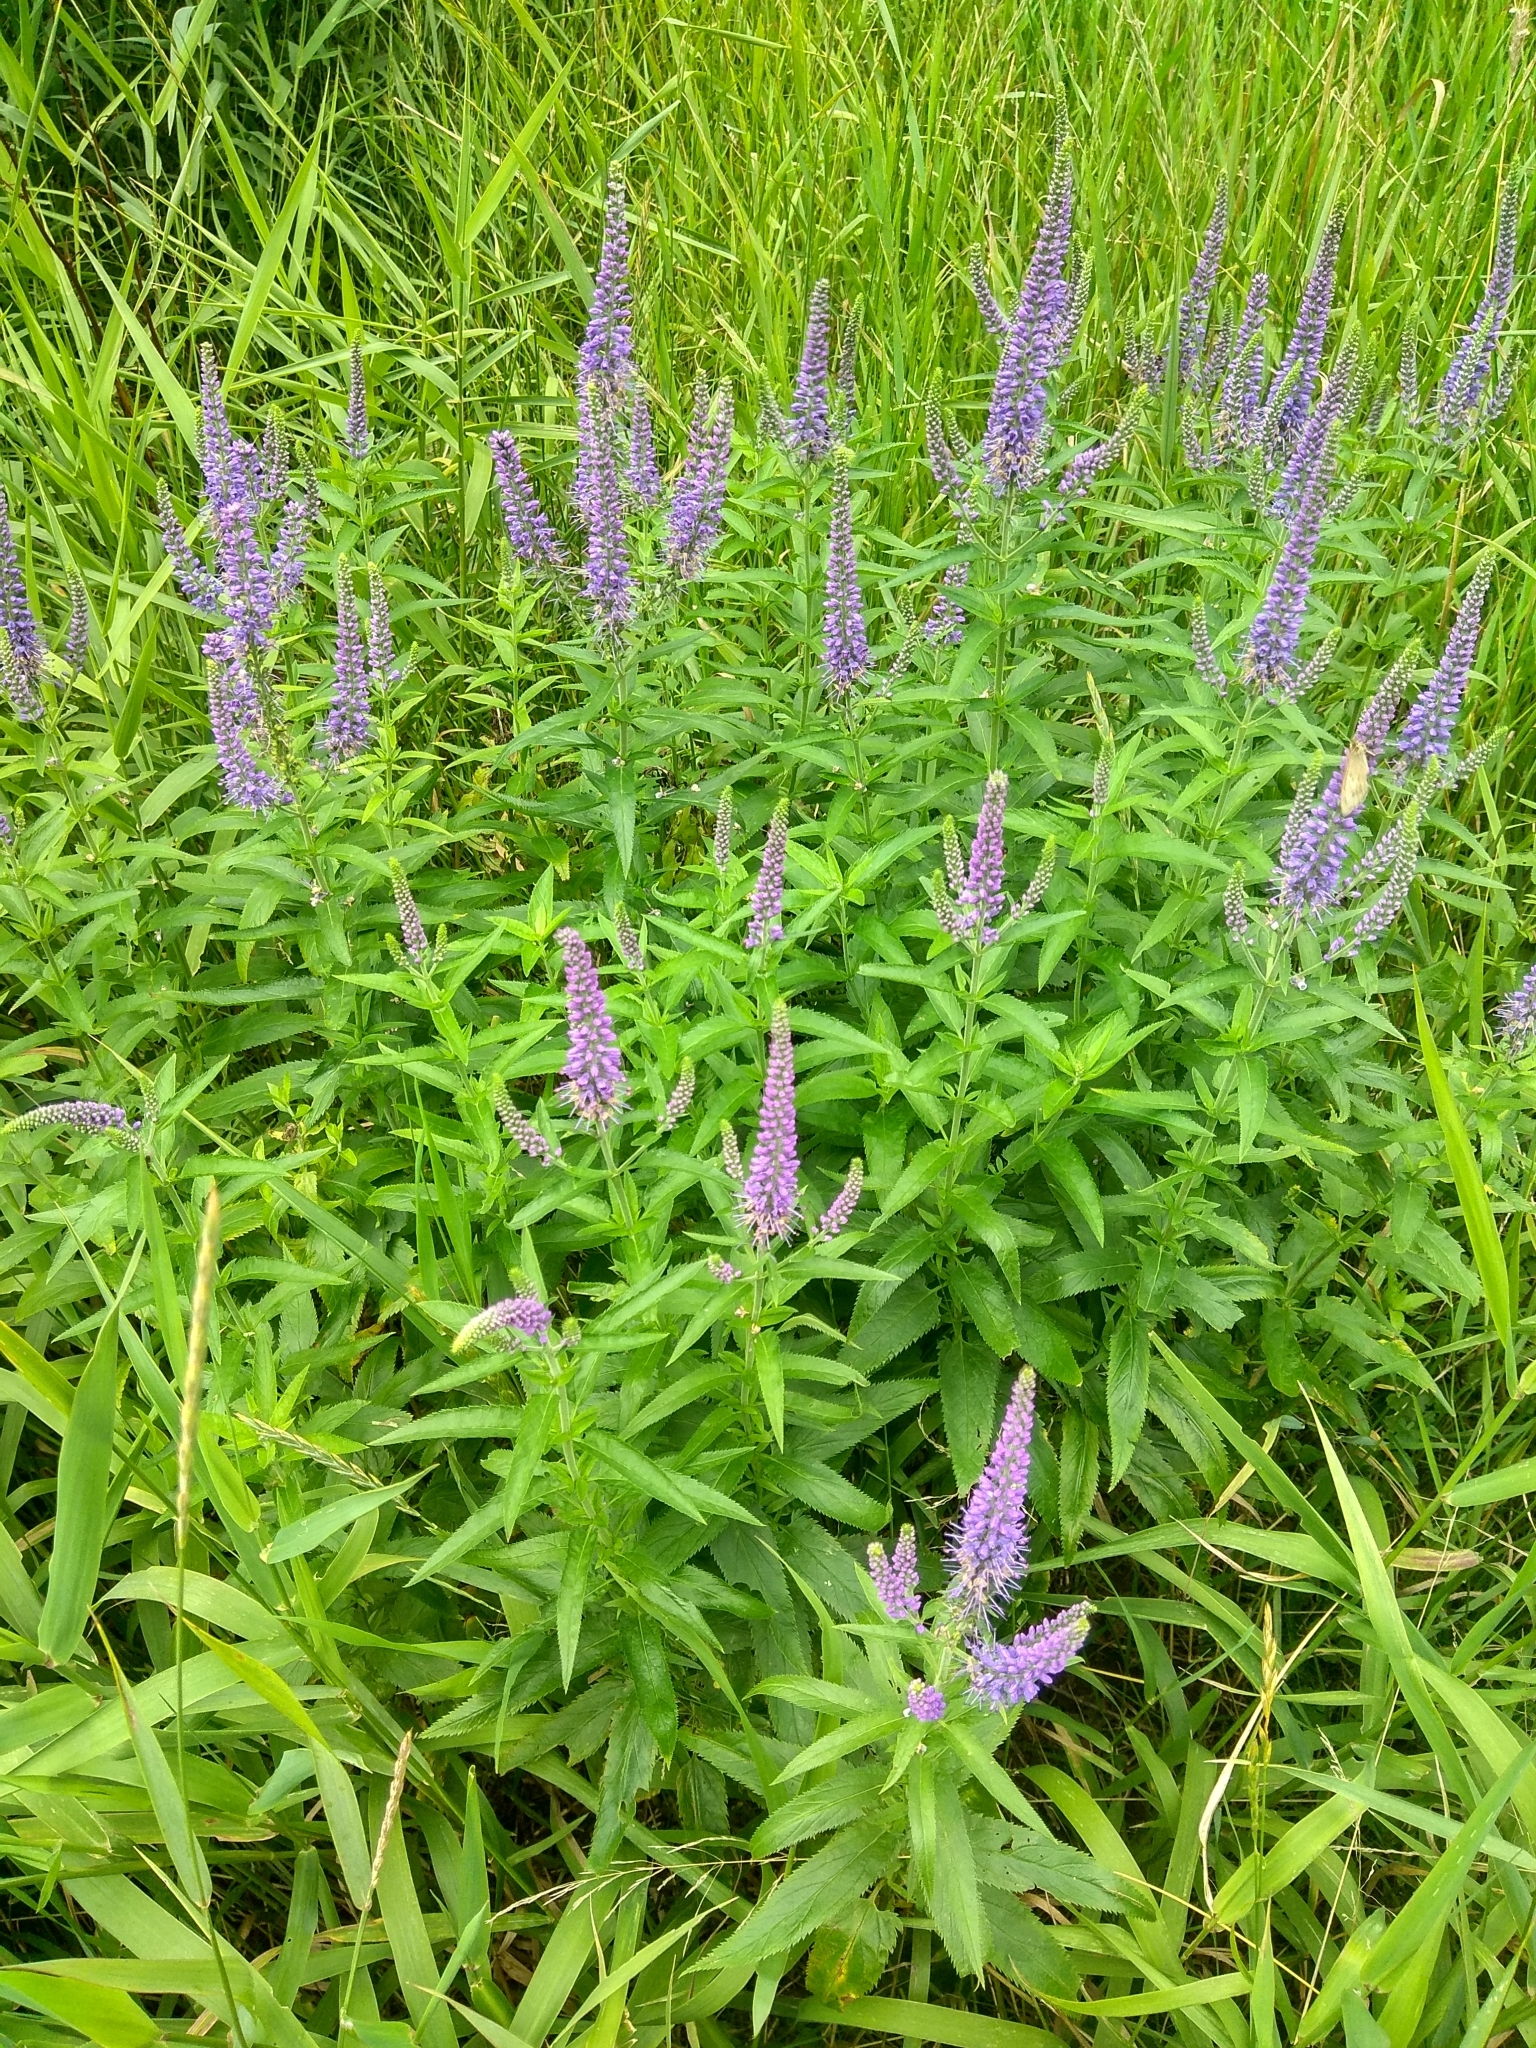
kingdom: Plantae
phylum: Tracheophyta
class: Magnoliopsida
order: Lamiales
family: Plantaginaceae
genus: Veronica
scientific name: Veronica longifolia
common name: Garden speedwell
